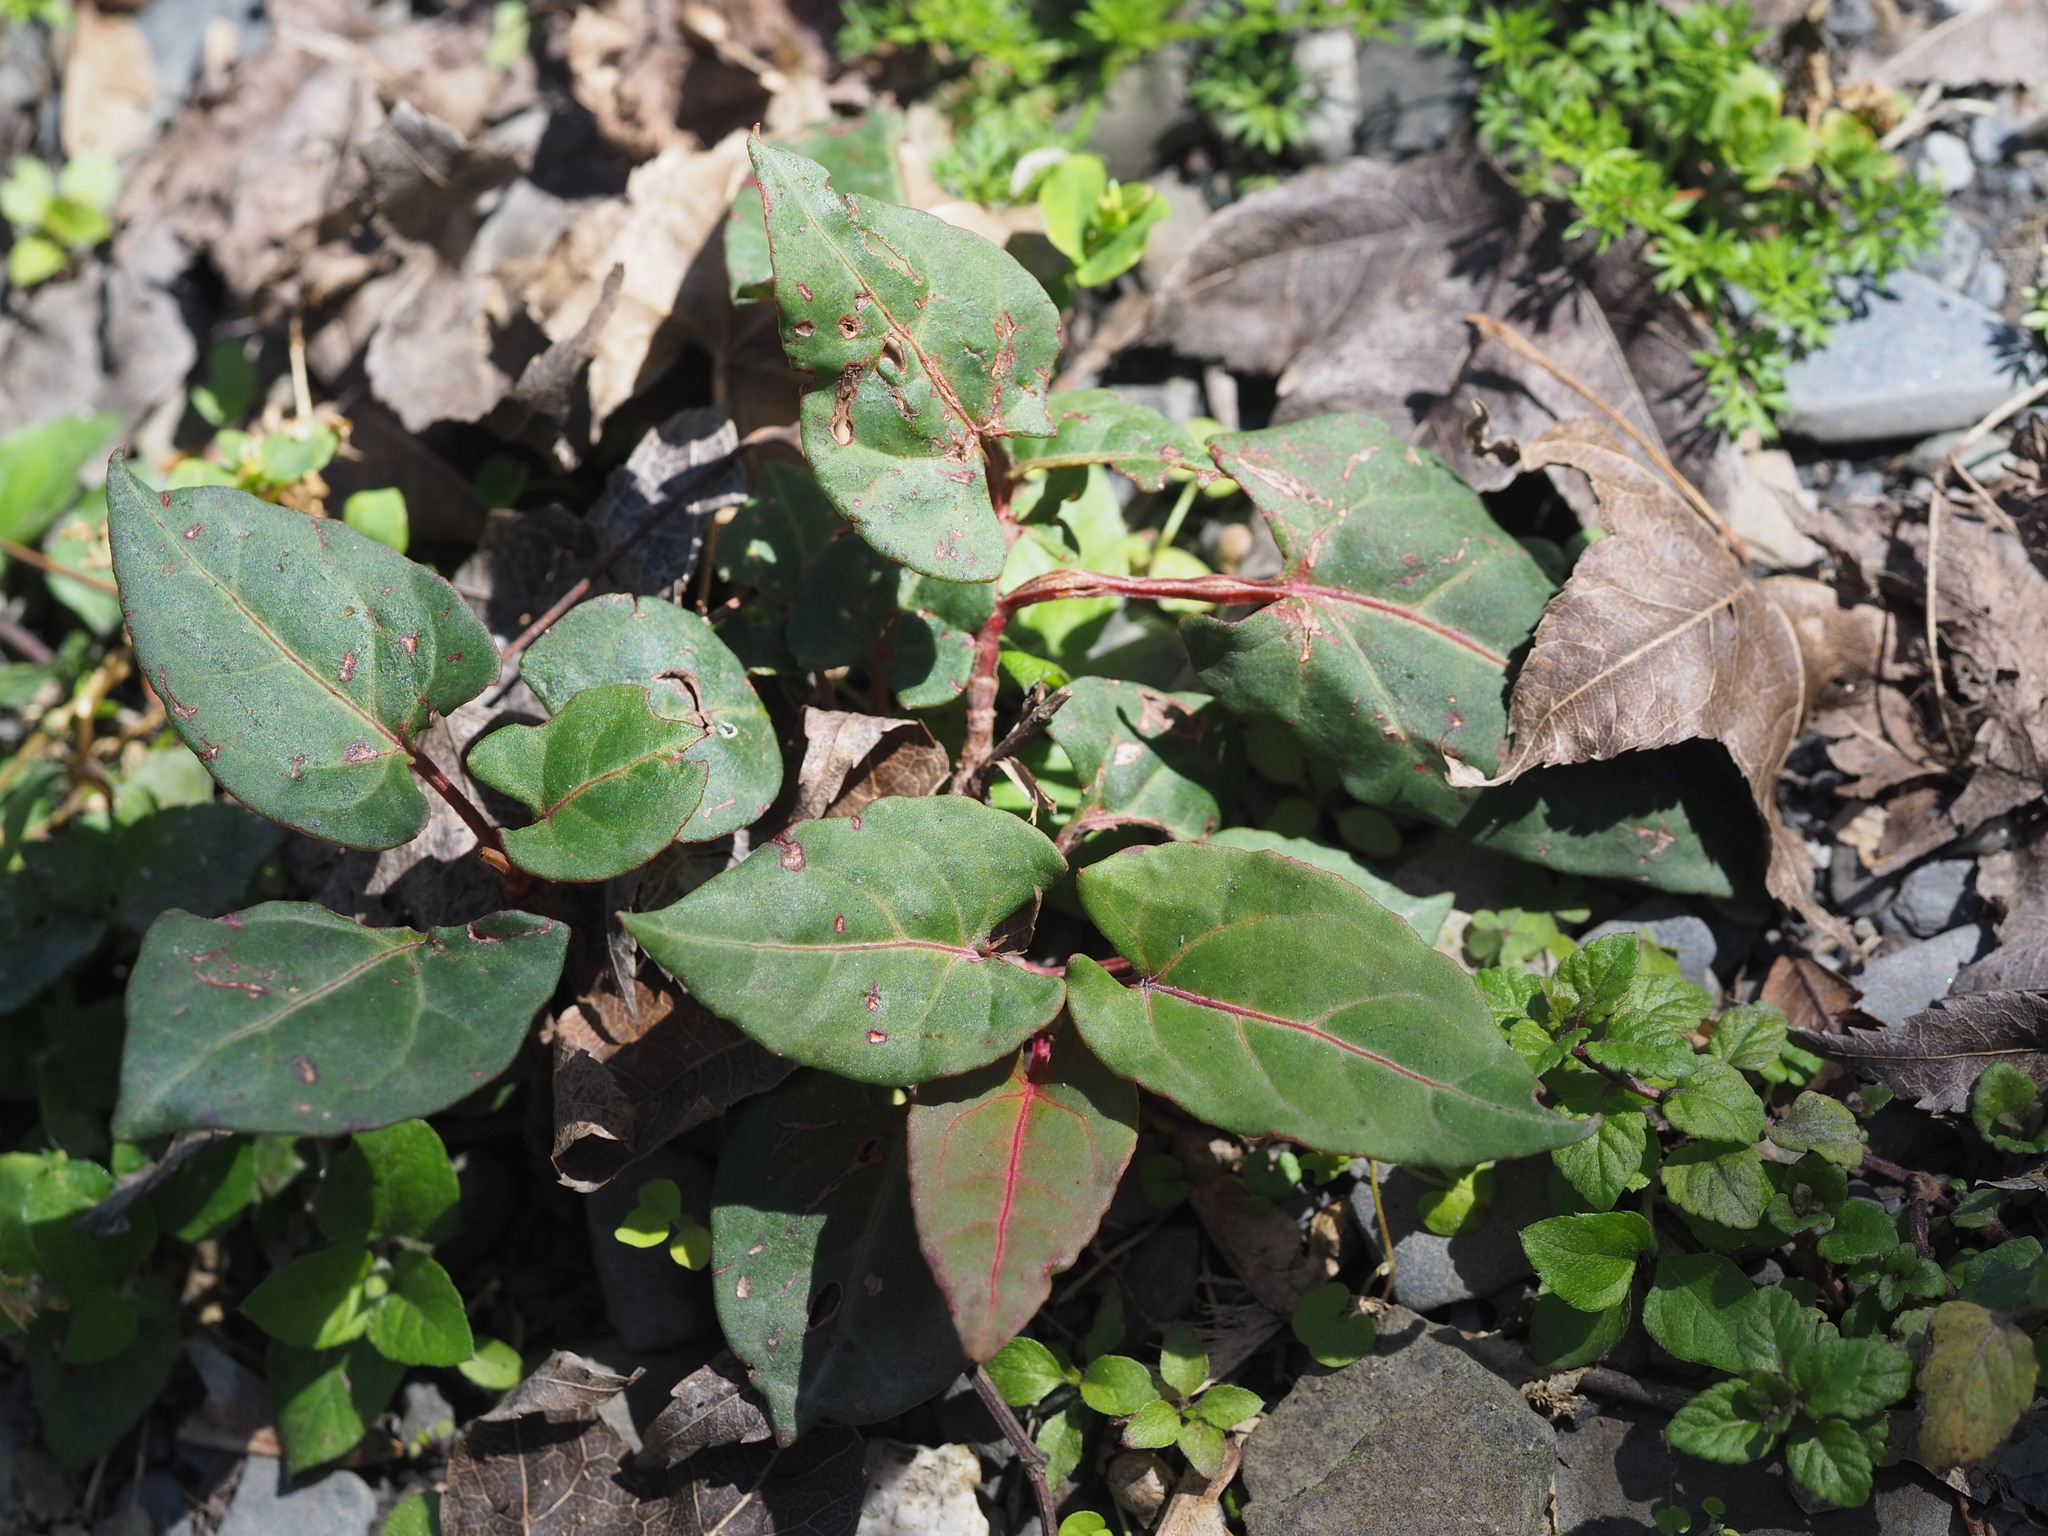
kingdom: Plantae
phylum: Tracheophyta
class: Magnoliopsida
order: Caryophyllales
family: Polygonaceae
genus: Reynoutria
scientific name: Reynoutria multiflora
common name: Chinese fleeceflower
